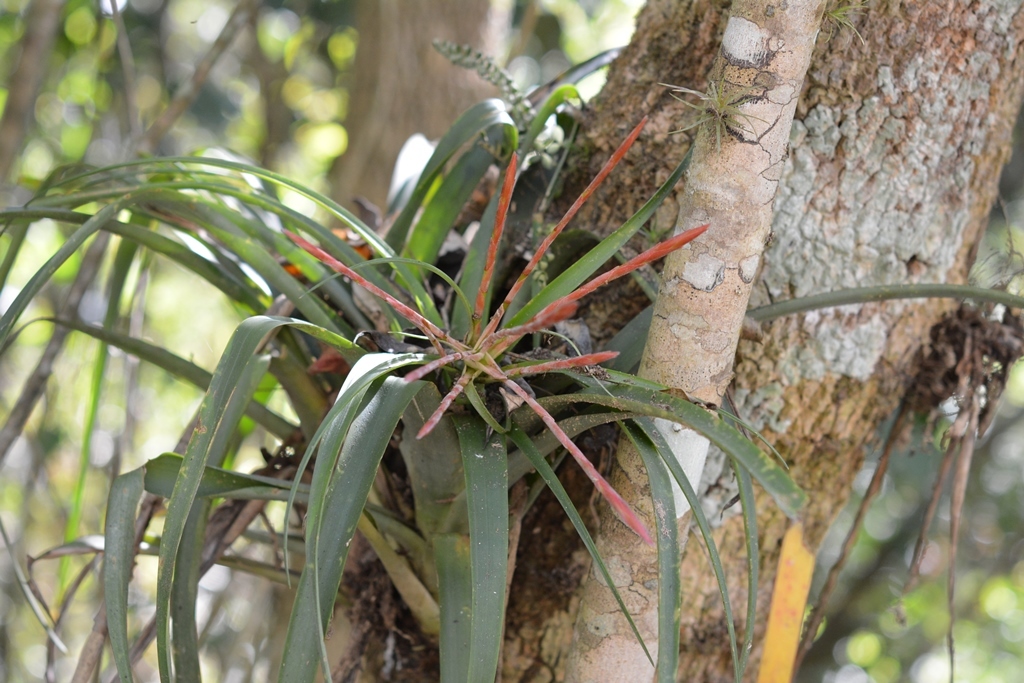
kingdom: Plantae
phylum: Tracheophyta
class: Liliopsida
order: Poales
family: Bromeliaceae
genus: Tillandsia
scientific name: Tillandsia flabellata
